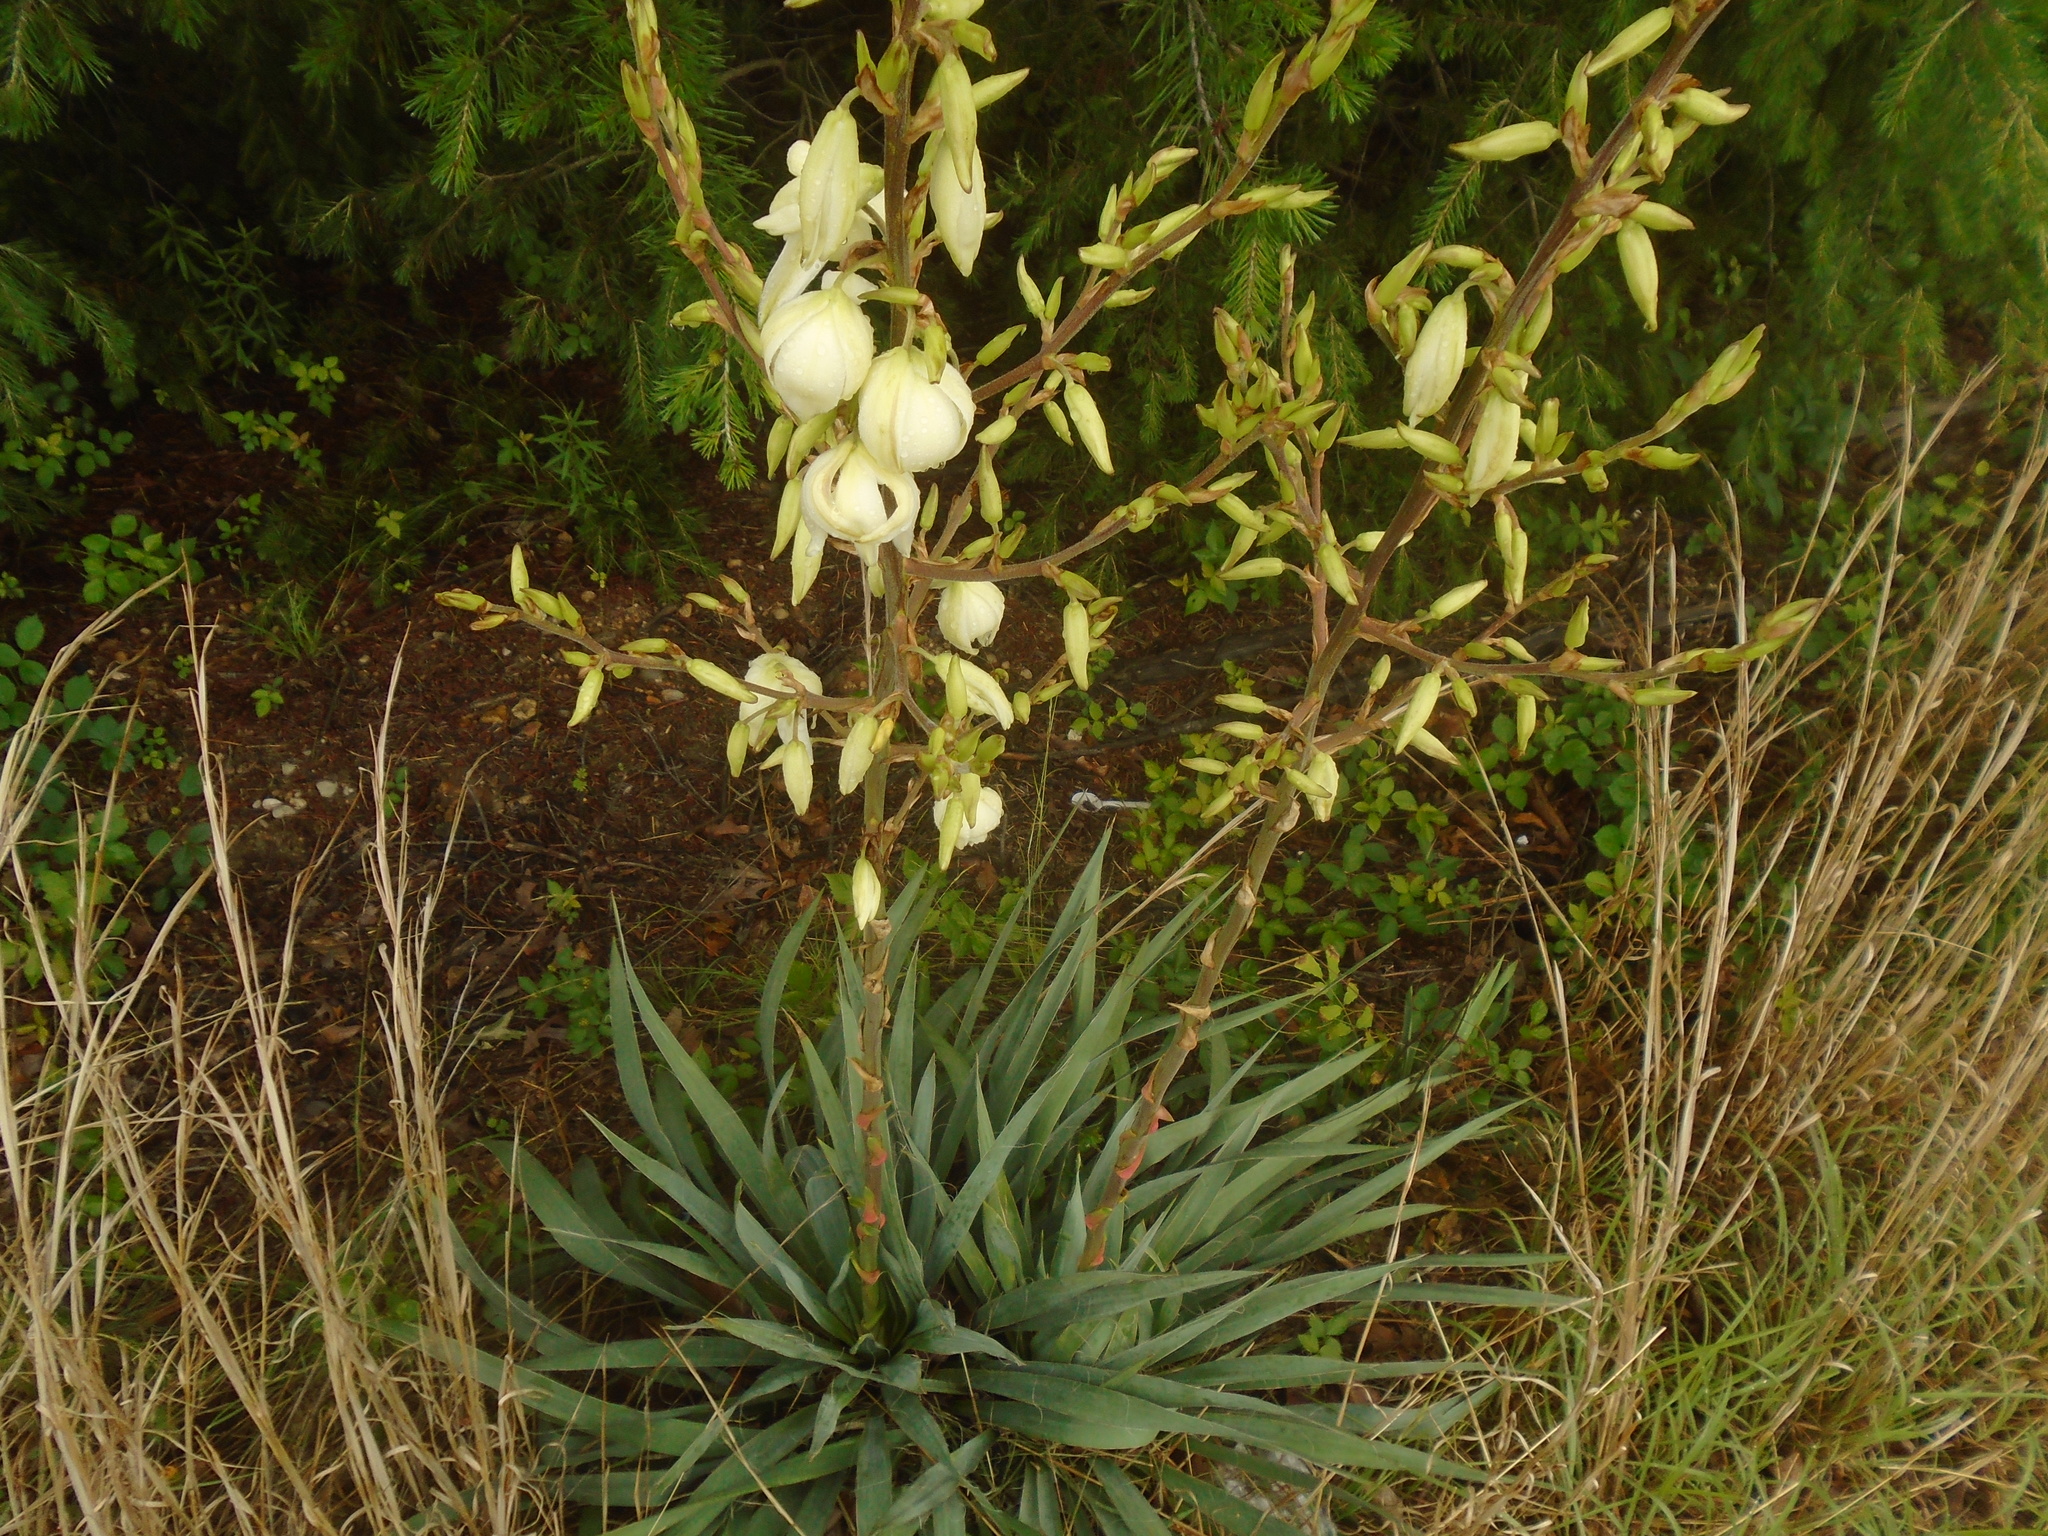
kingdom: Plantae
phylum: Tracheophyta
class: Liliopsida
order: Asparagales
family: Asparagaceae
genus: Yucca
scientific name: Yucca filamentosa
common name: Adam's-needle
